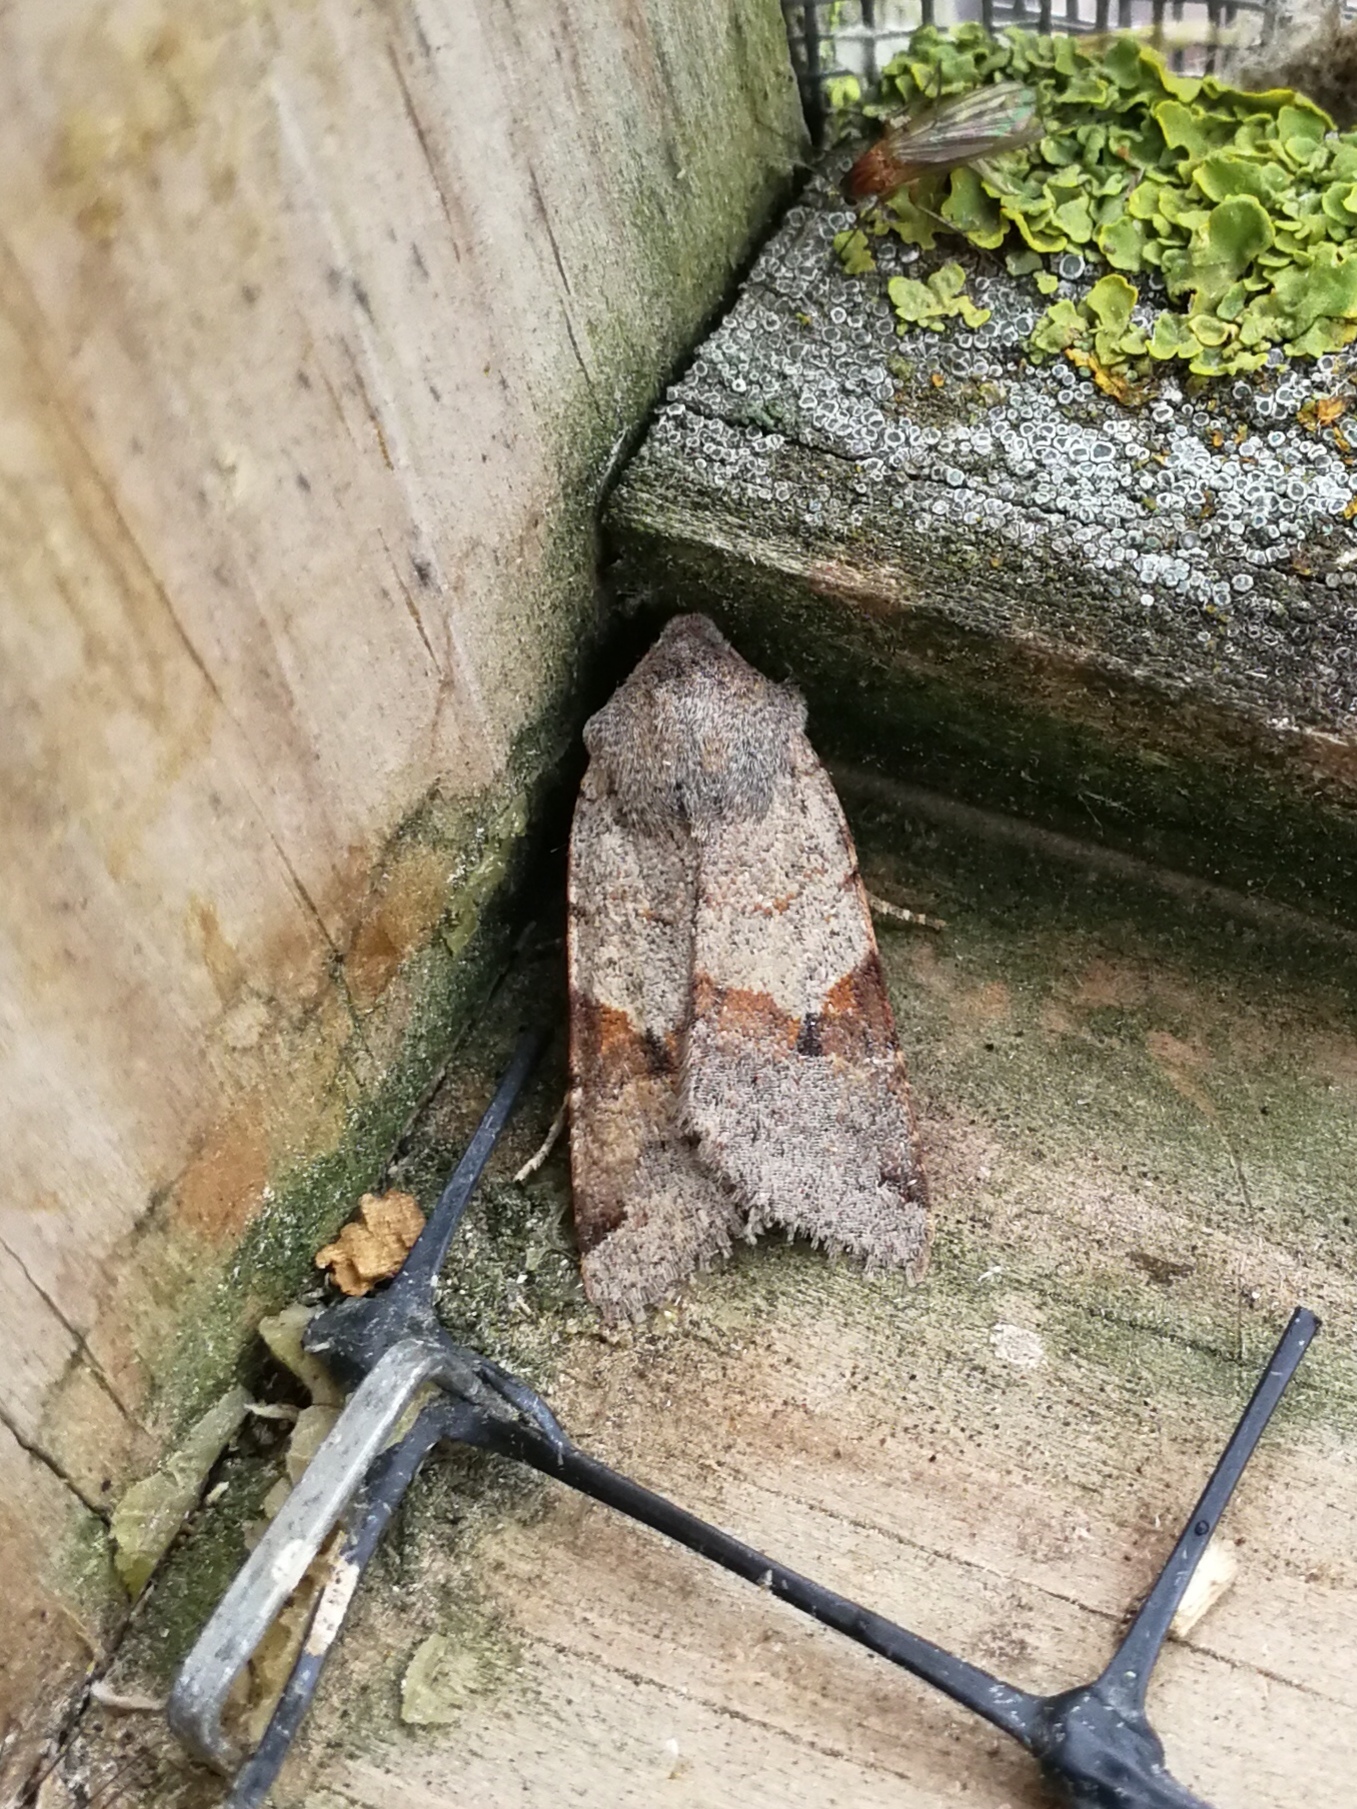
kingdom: Animalia
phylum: Arthropoda
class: Insecta
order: Lepidoptera
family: Noctuidae
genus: Agrochola
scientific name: Agrochola meridionalis
